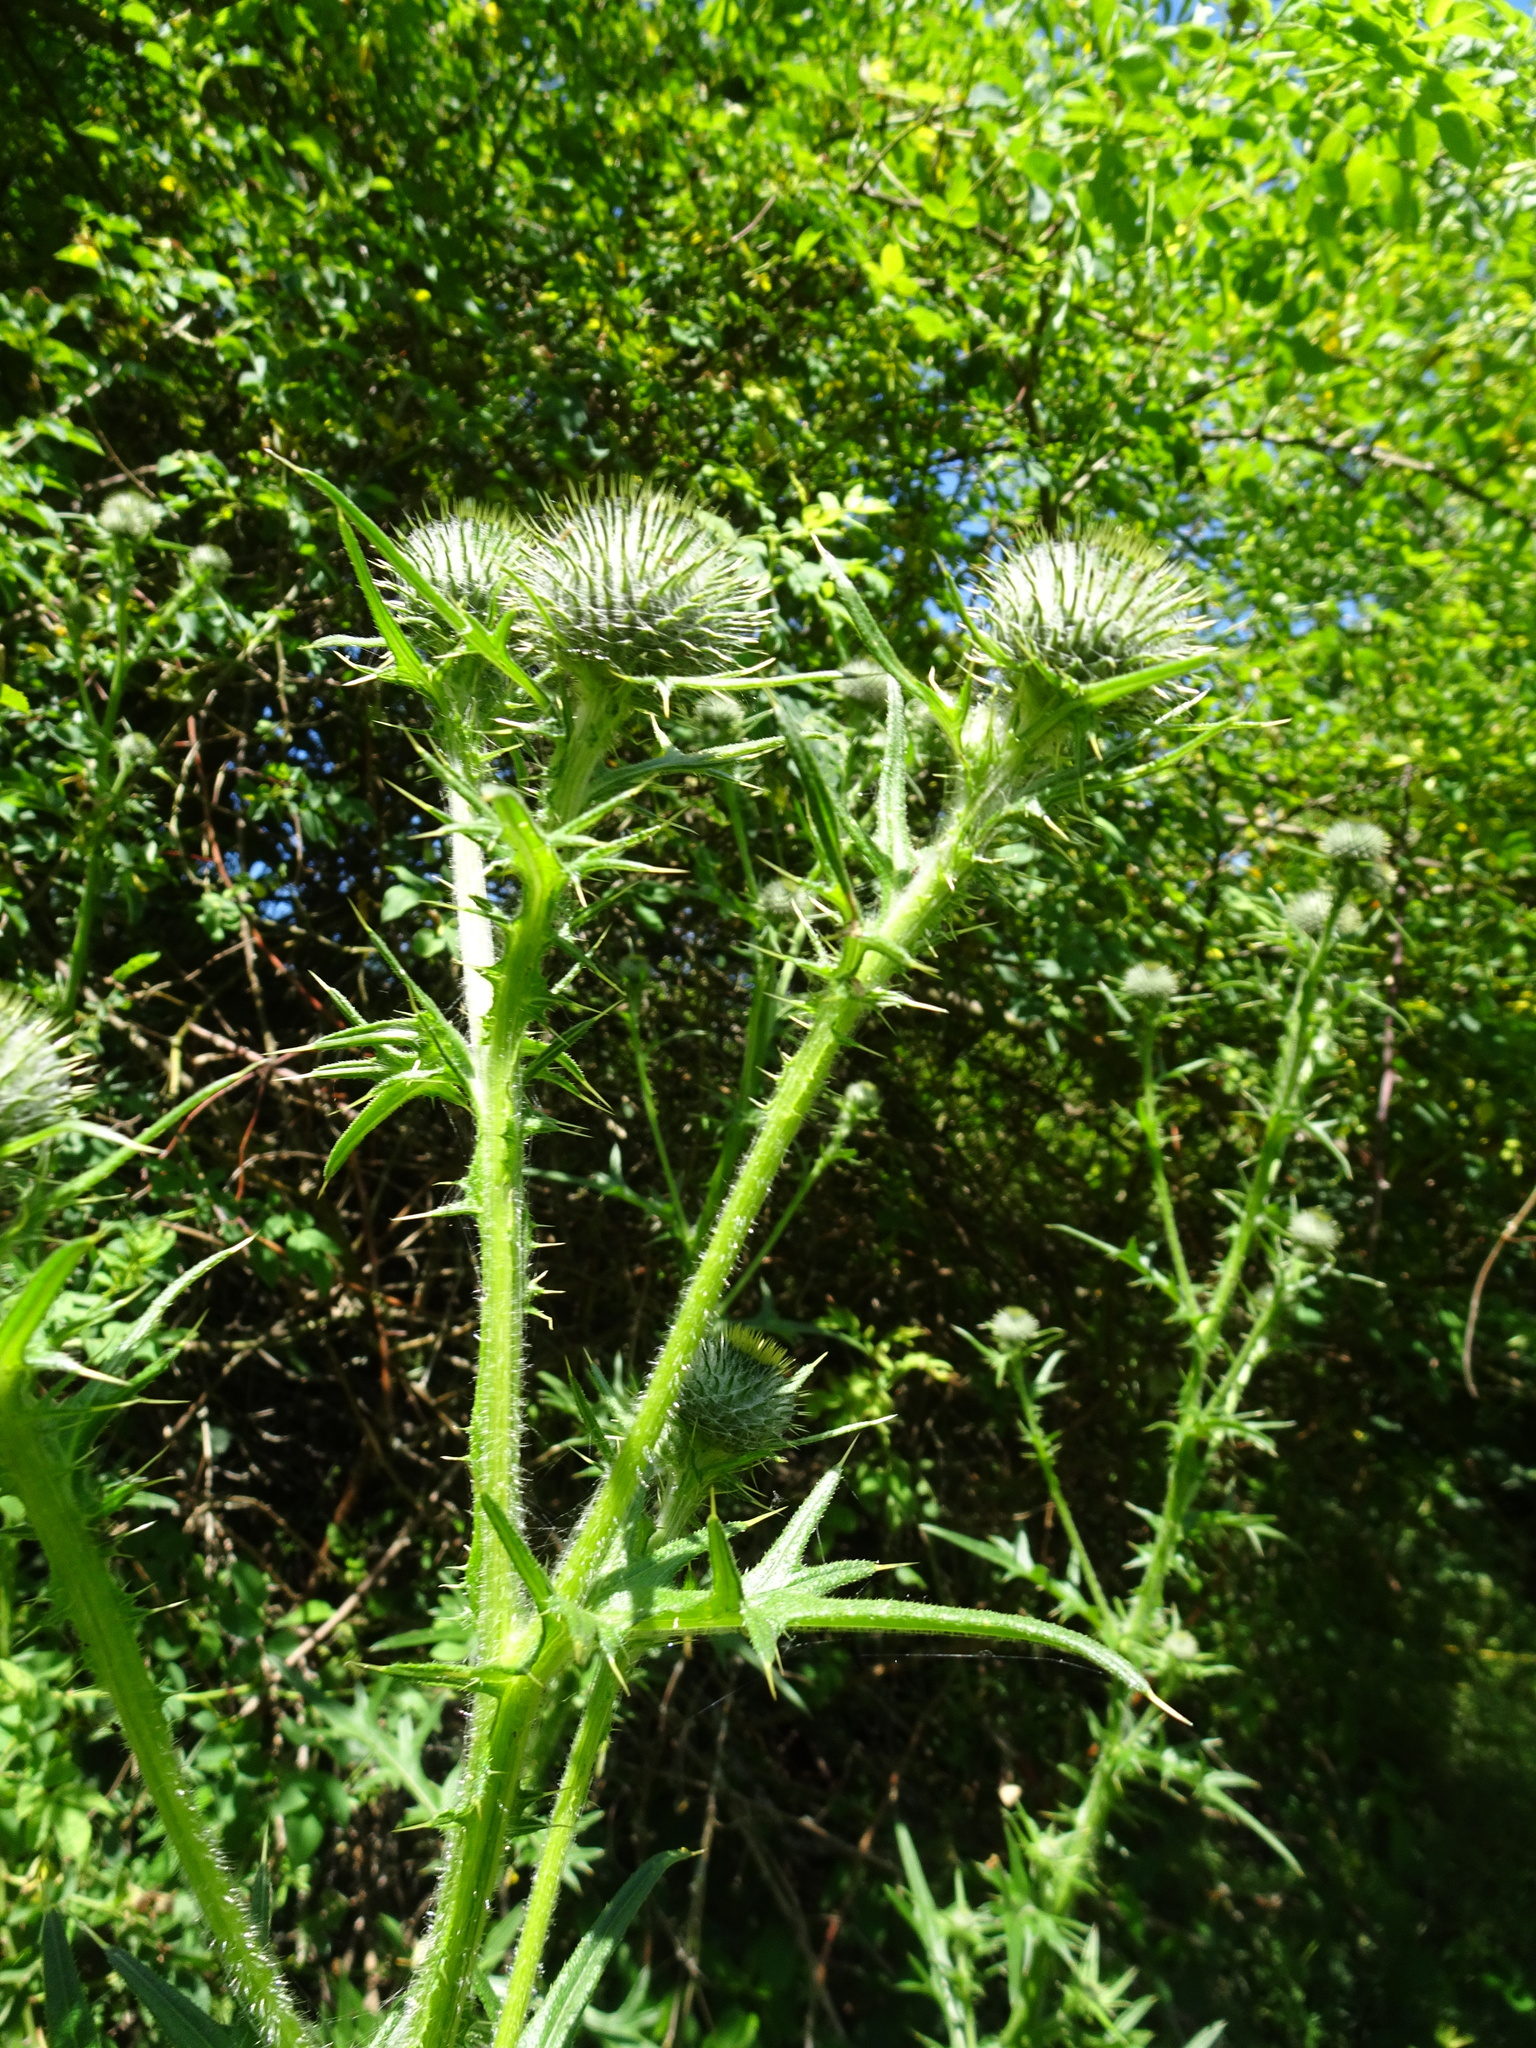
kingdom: Plantae
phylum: Tracheophyta
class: Magnoliopsida
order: Asterales
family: Asteraceae
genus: Cirsium
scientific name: Cirsium vulgare
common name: Bull thistle
